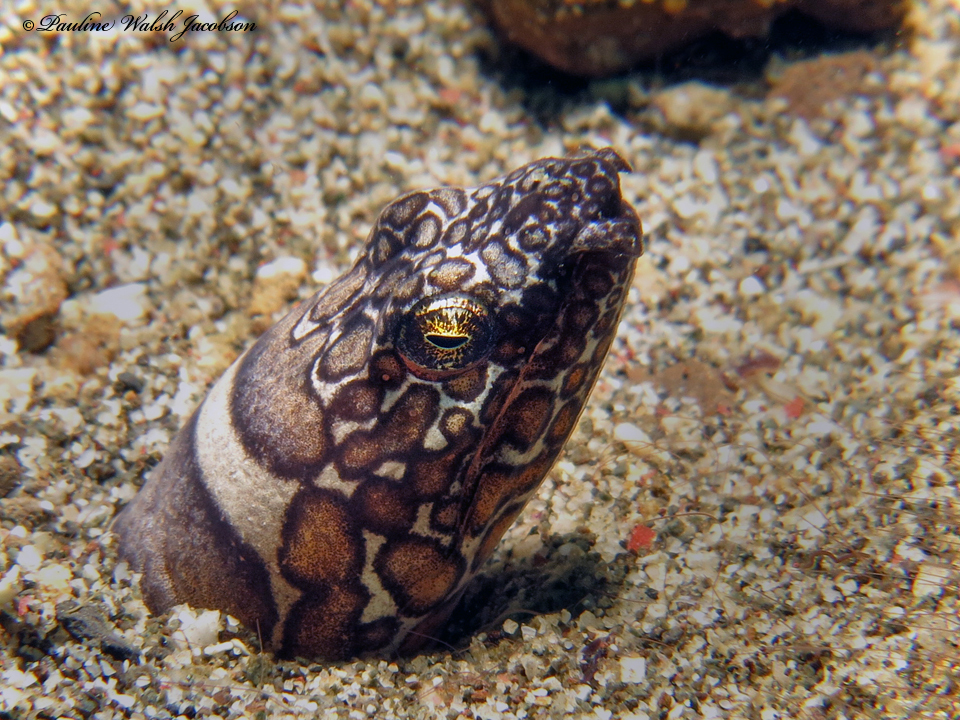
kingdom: Animalia
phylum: Chordata
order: Anguilliformes
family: Ophichthidae
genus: Ophichthus
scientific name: Ophichthus bonaparti
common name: Napoleon snake eel
